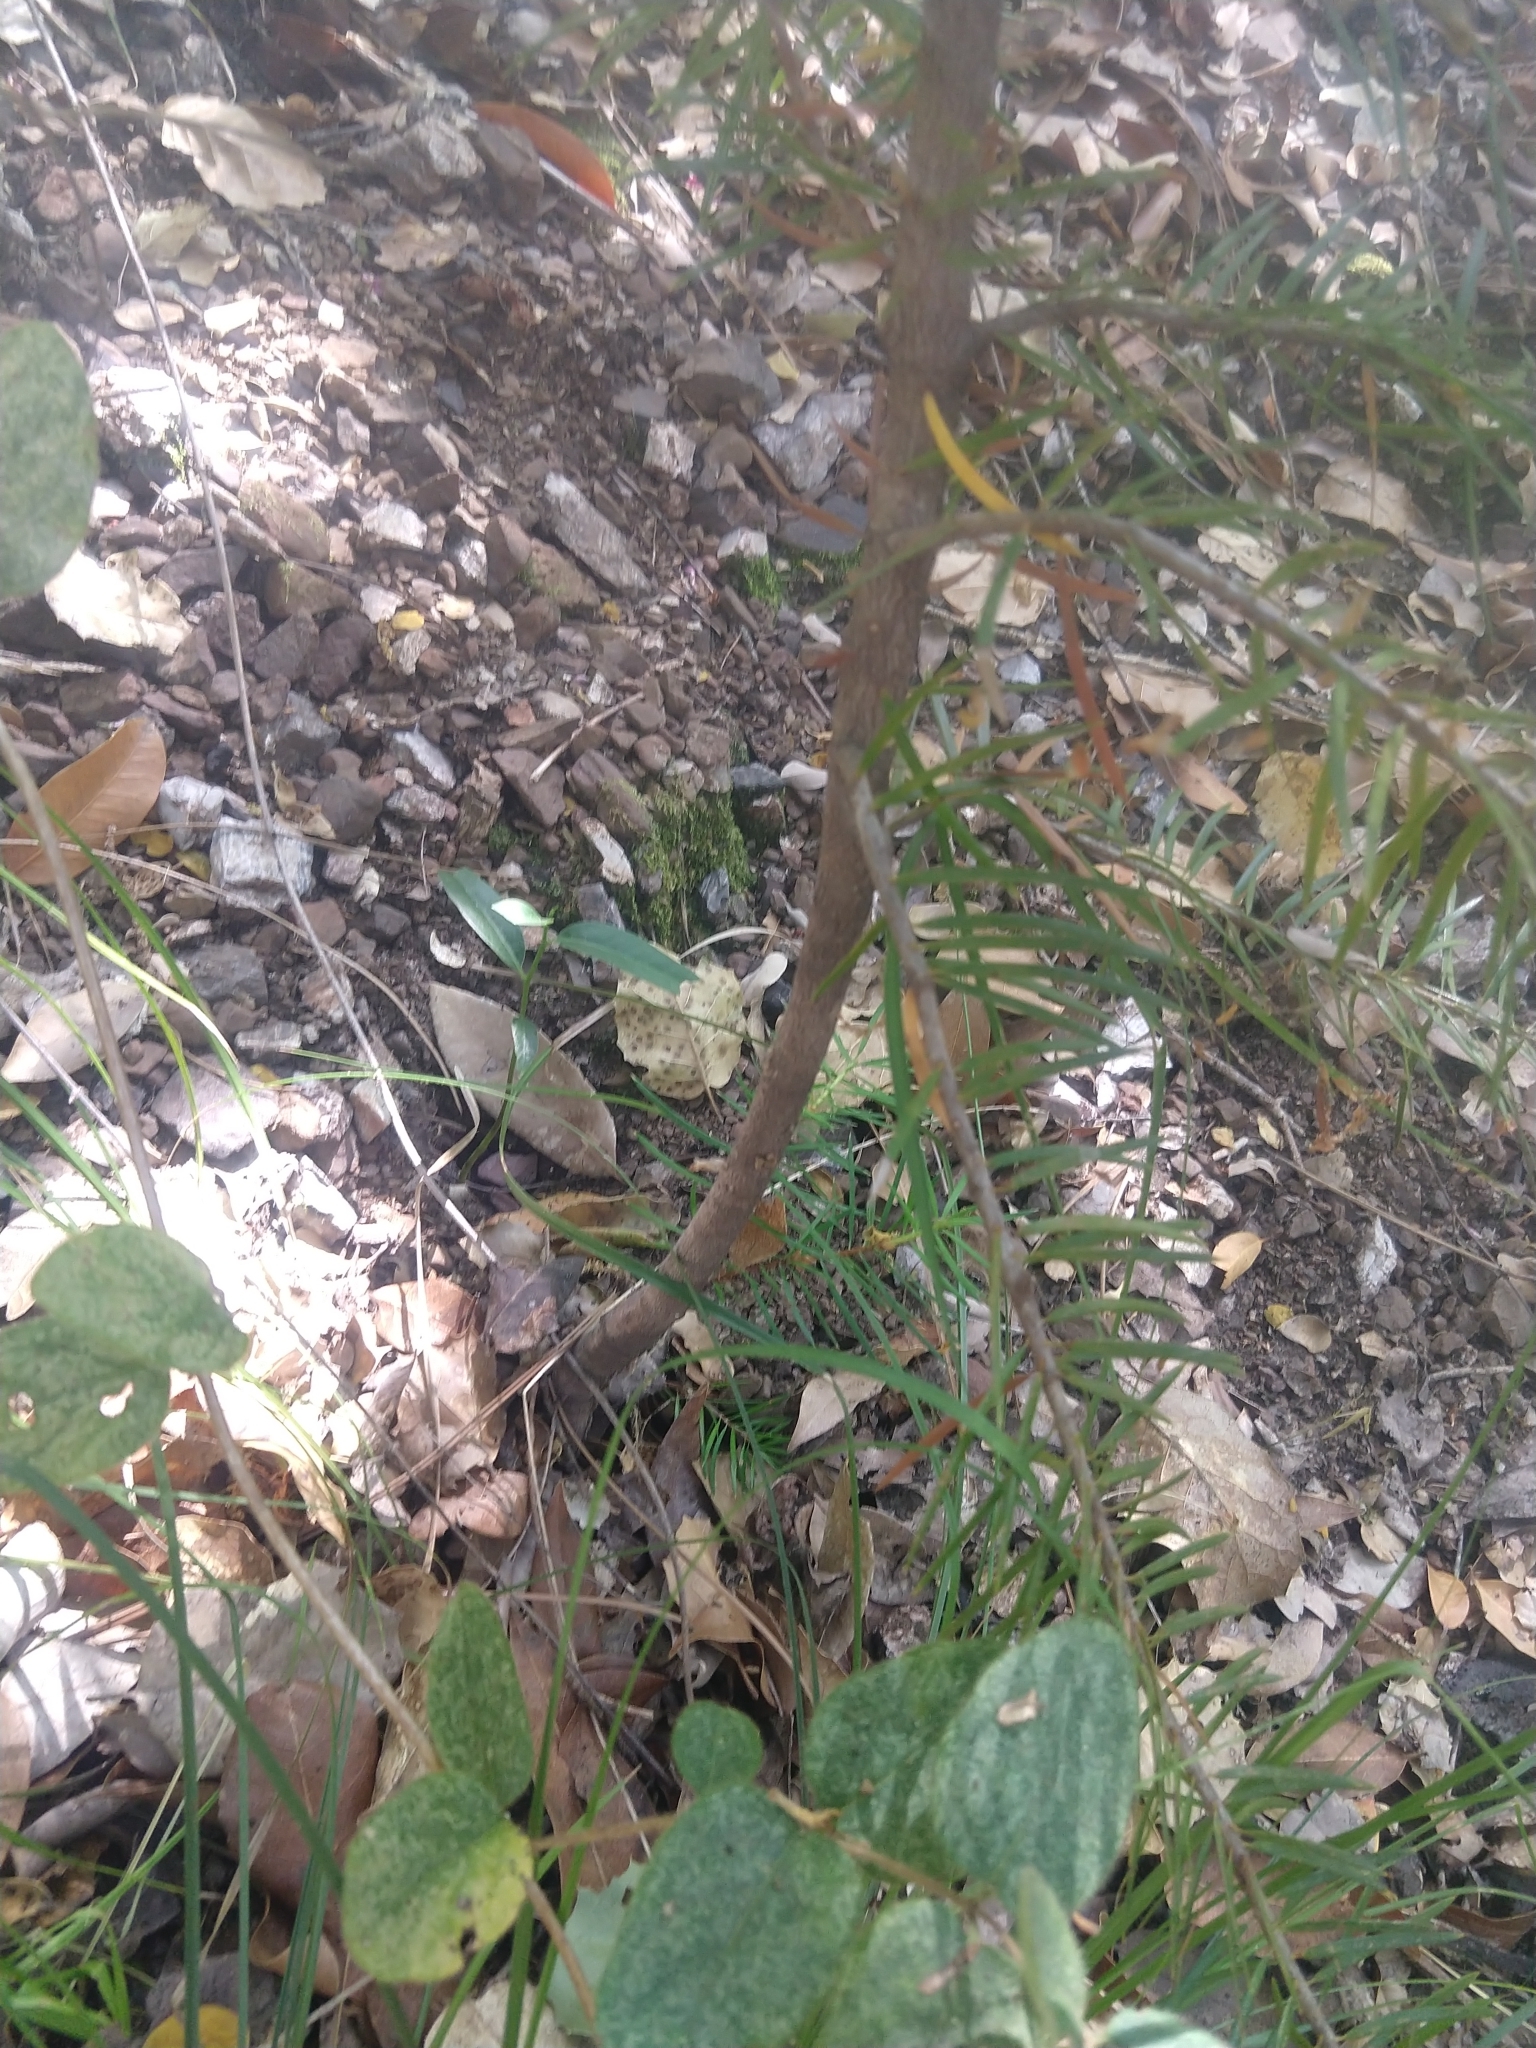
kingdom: Plantae
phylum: Tracheophyta
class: Pinopsida
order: Pinales
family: Pinaceae
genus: Abies
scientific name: Abies bracteata
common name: Bristlecone fir
